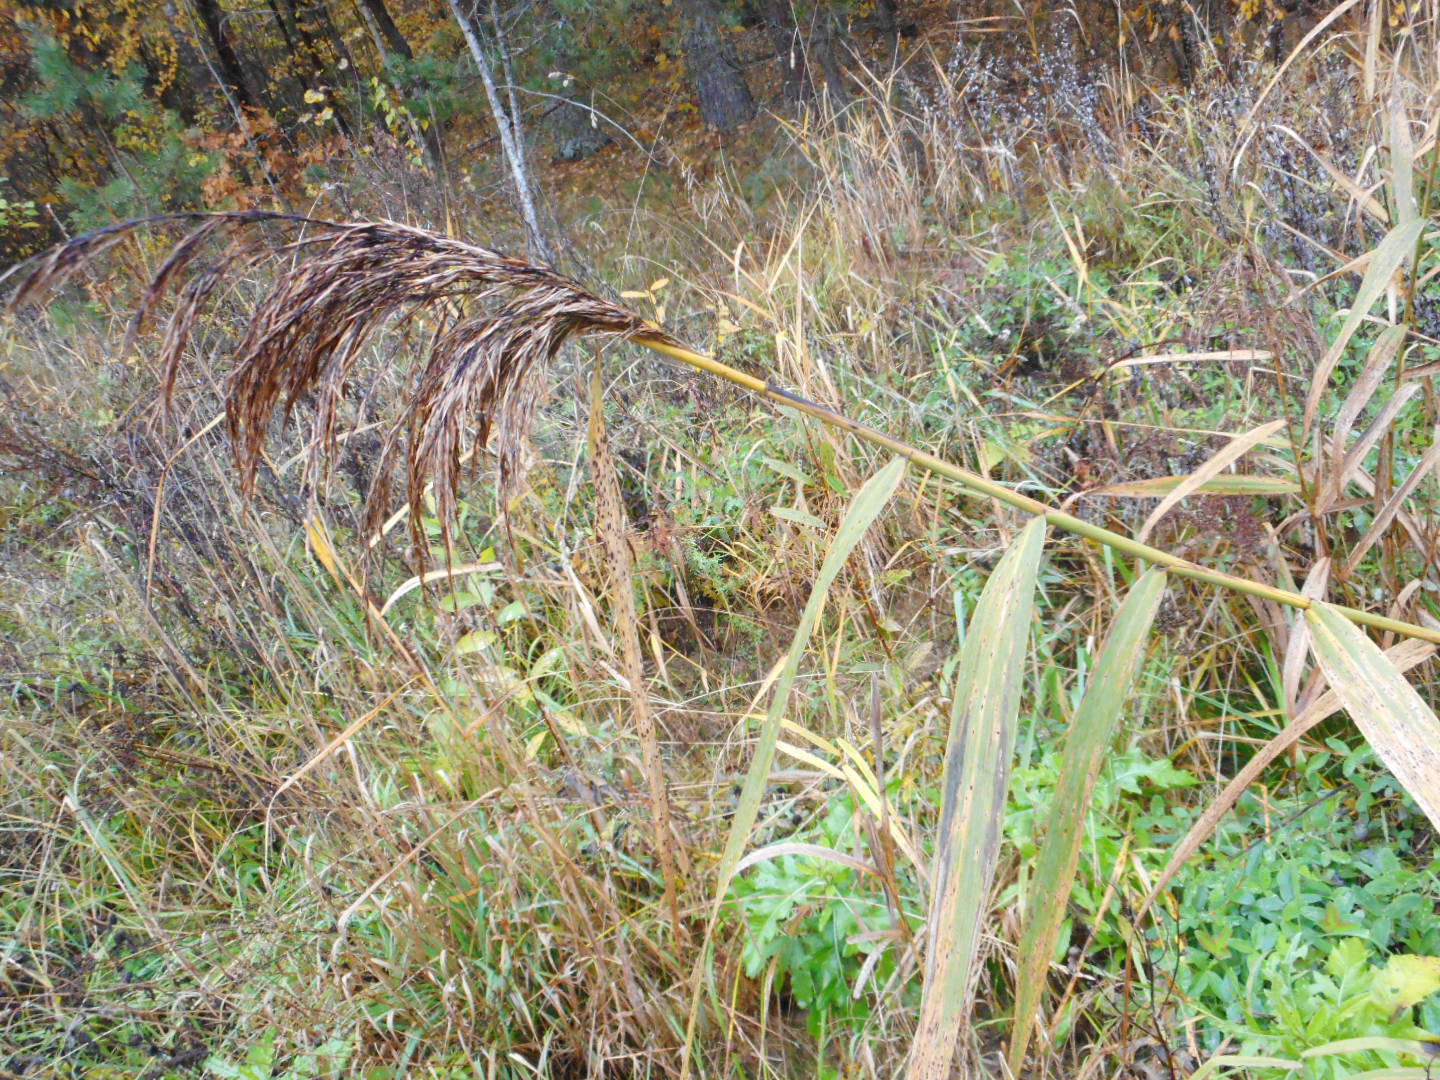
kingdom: Plantae
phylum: Tracheophyta
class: Liliopsida
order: Poales
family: Poaceae
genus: Phragmites
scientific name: Phragmites australis
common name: Common reed
